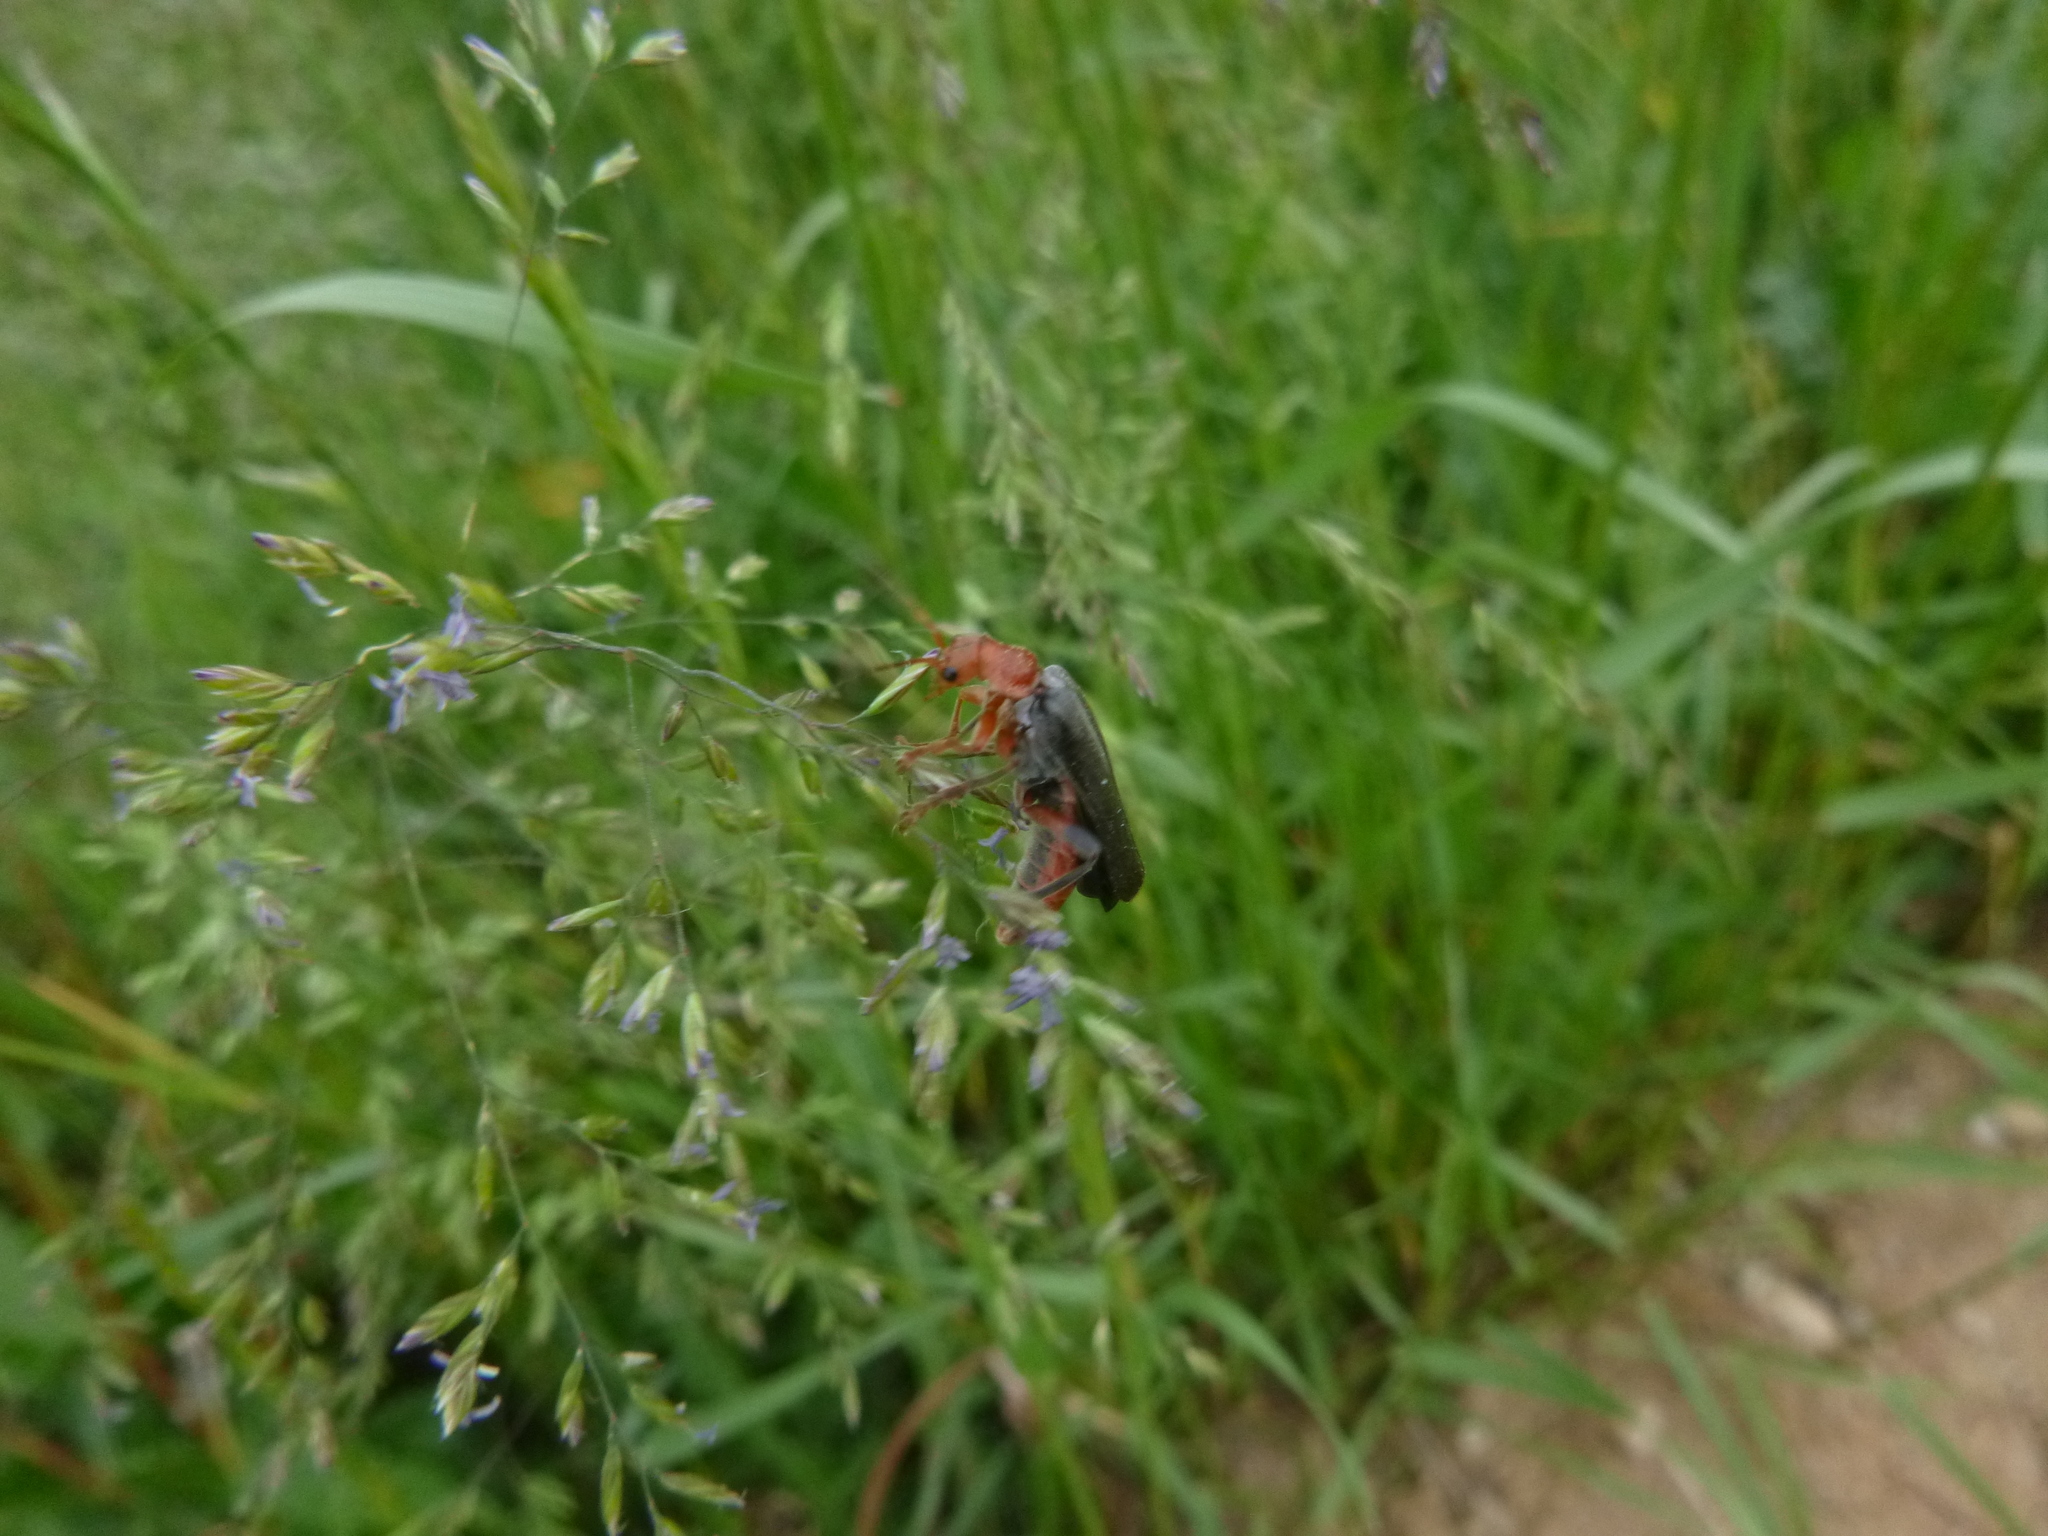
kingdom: Animalia
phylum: Arthropoda
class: Insecta
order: Coleoptera
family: Cantharidae
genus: Cantharis
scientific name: Cantharis livida
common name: Livid soldier beetle
